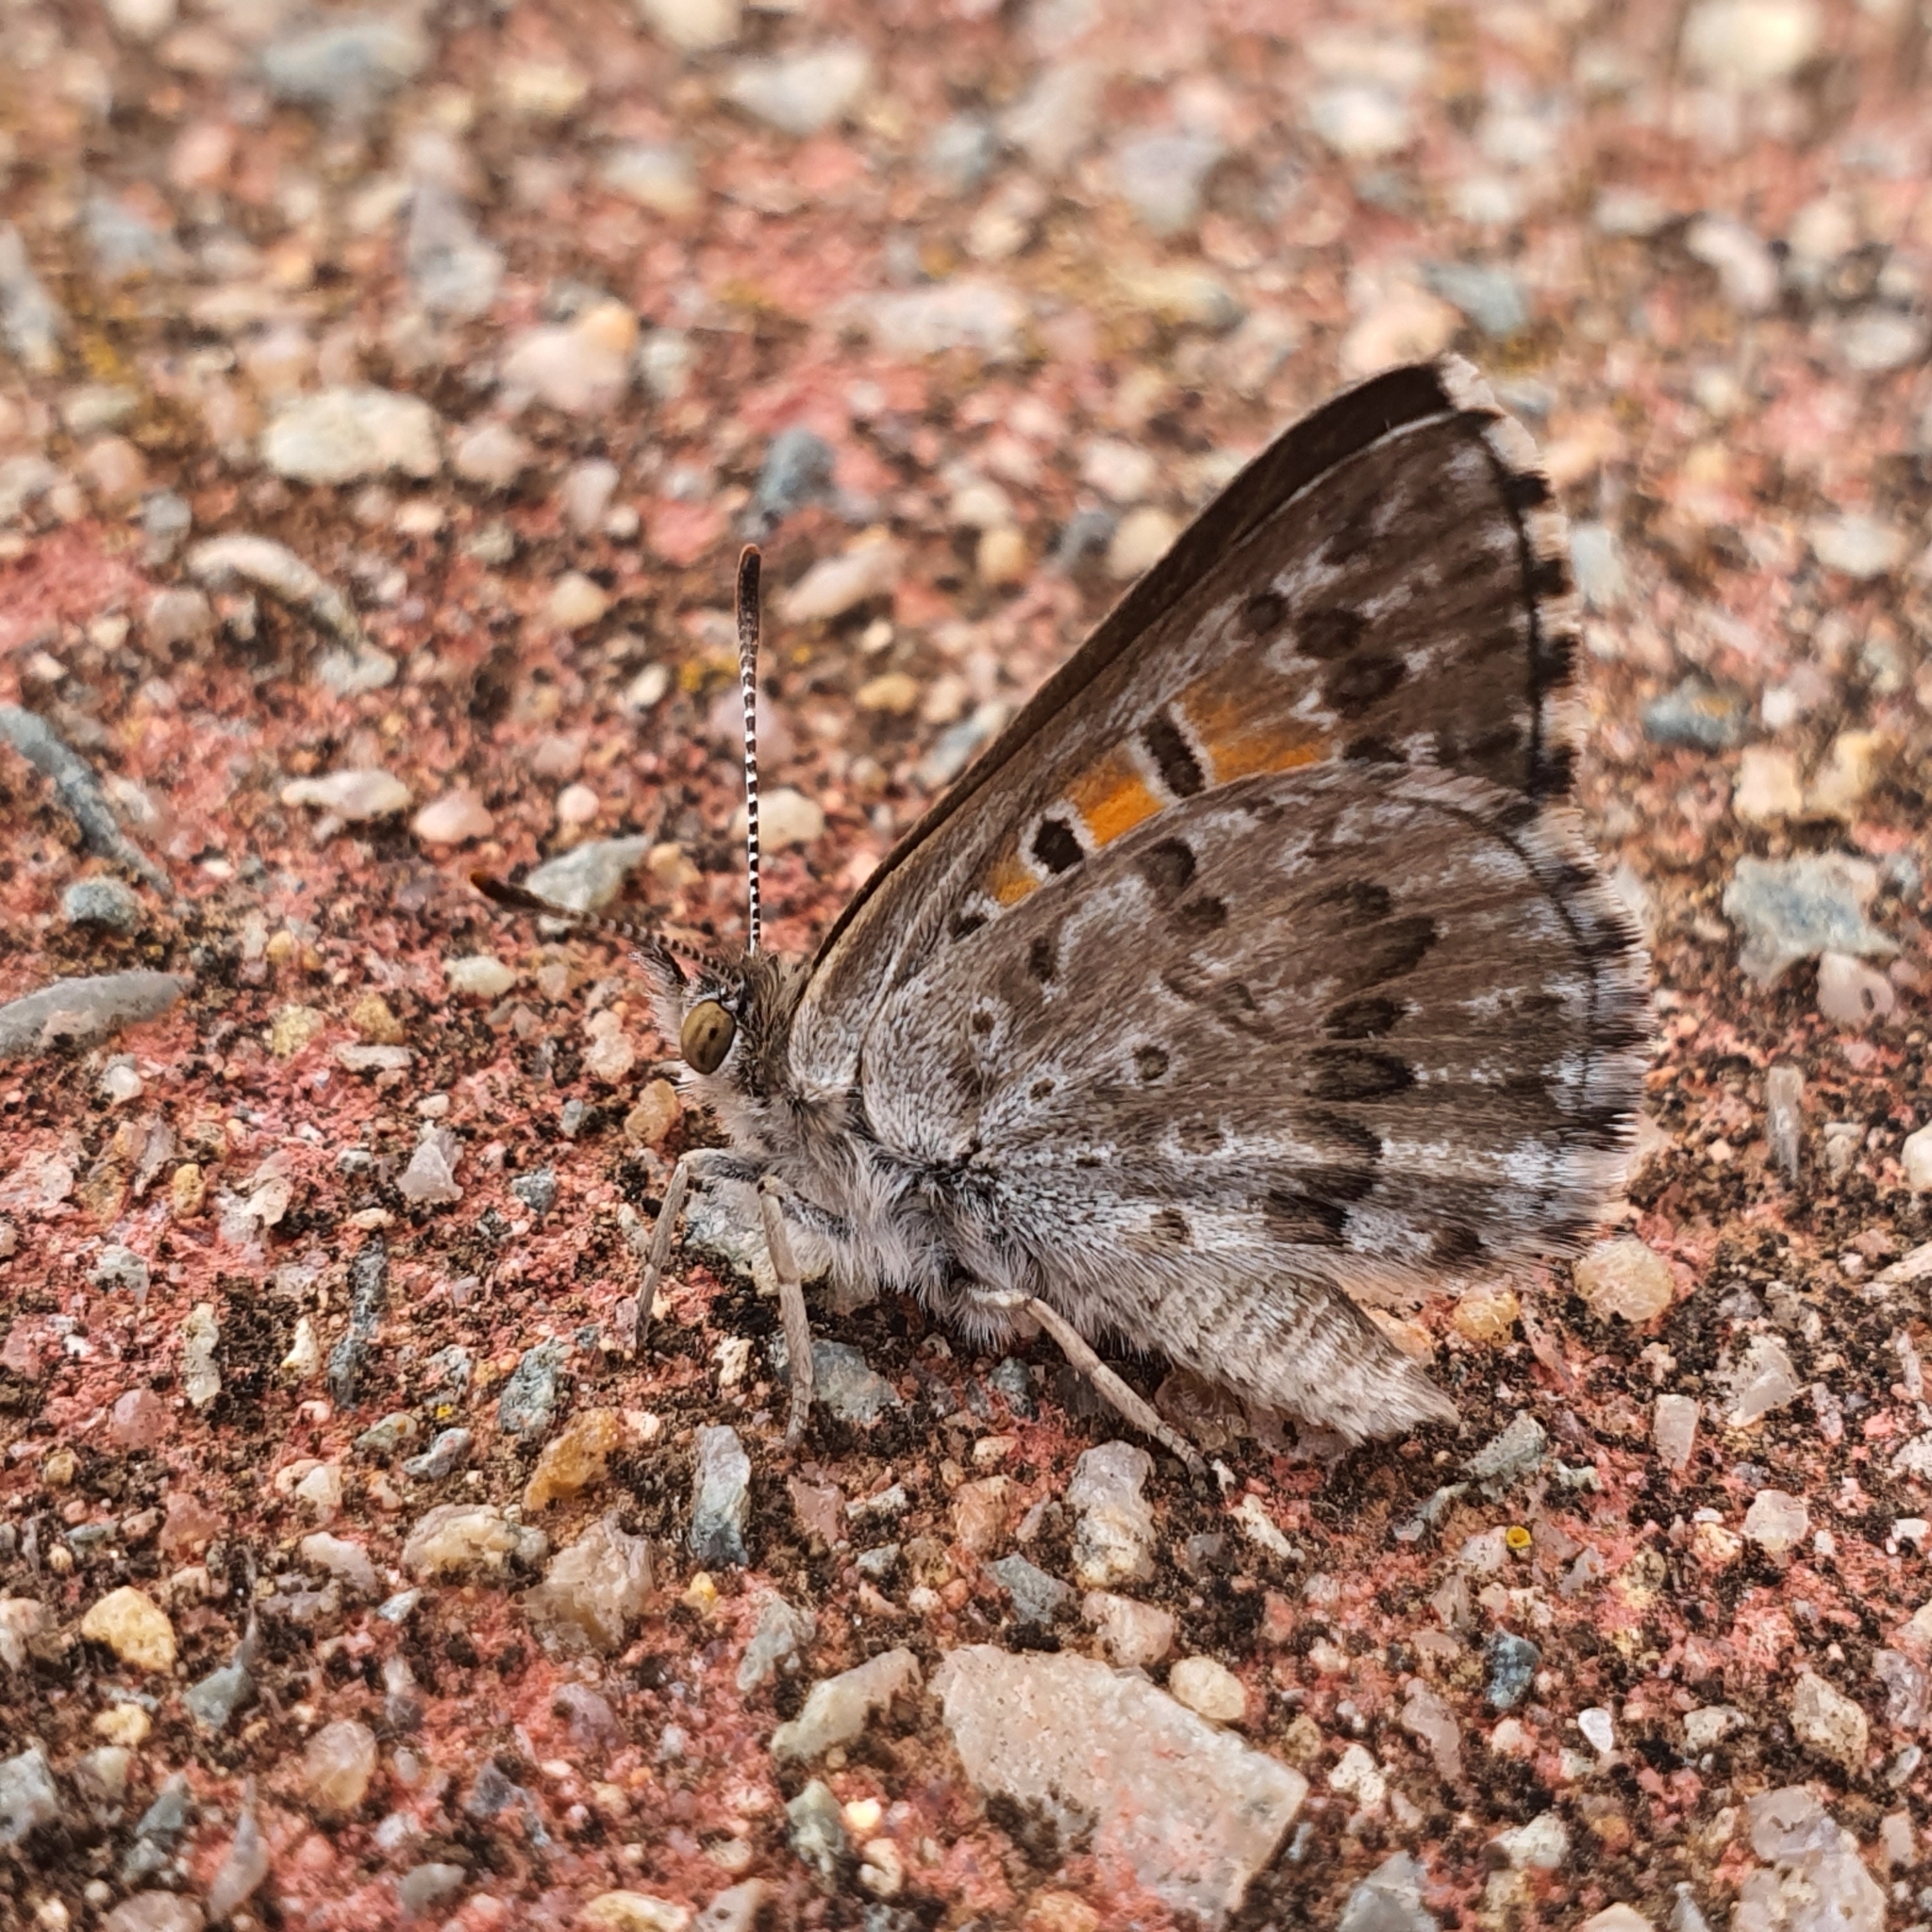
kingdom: Animalia
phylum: Arthropoda
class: Insecta
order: Lepidoptera
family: Lycaenidae
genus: Lucia
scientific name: Lucia limbaria
